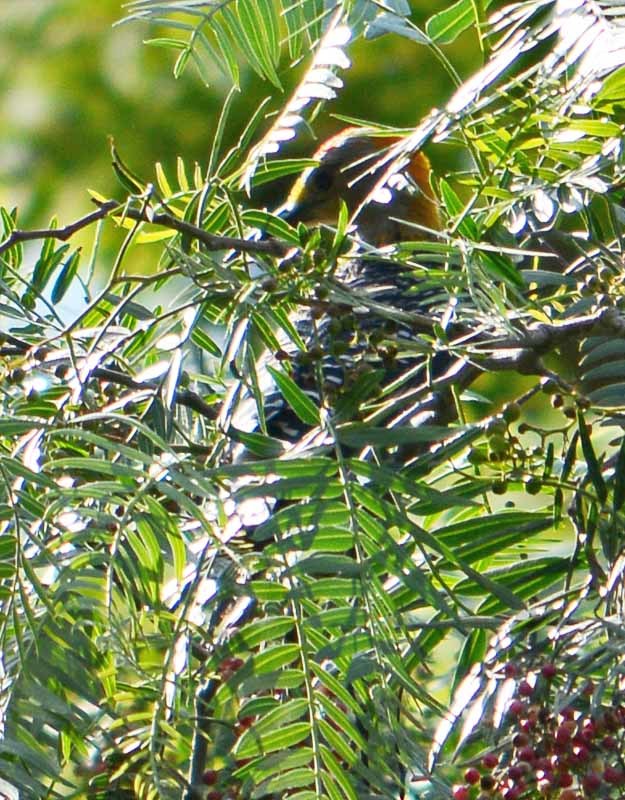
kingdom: Animalia
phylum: Chordata
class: Aves
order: Piciformes
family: Picidae
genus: Melanerpes
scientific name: Melanerpes aurifrons
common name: Golden-fronted woodpecker
